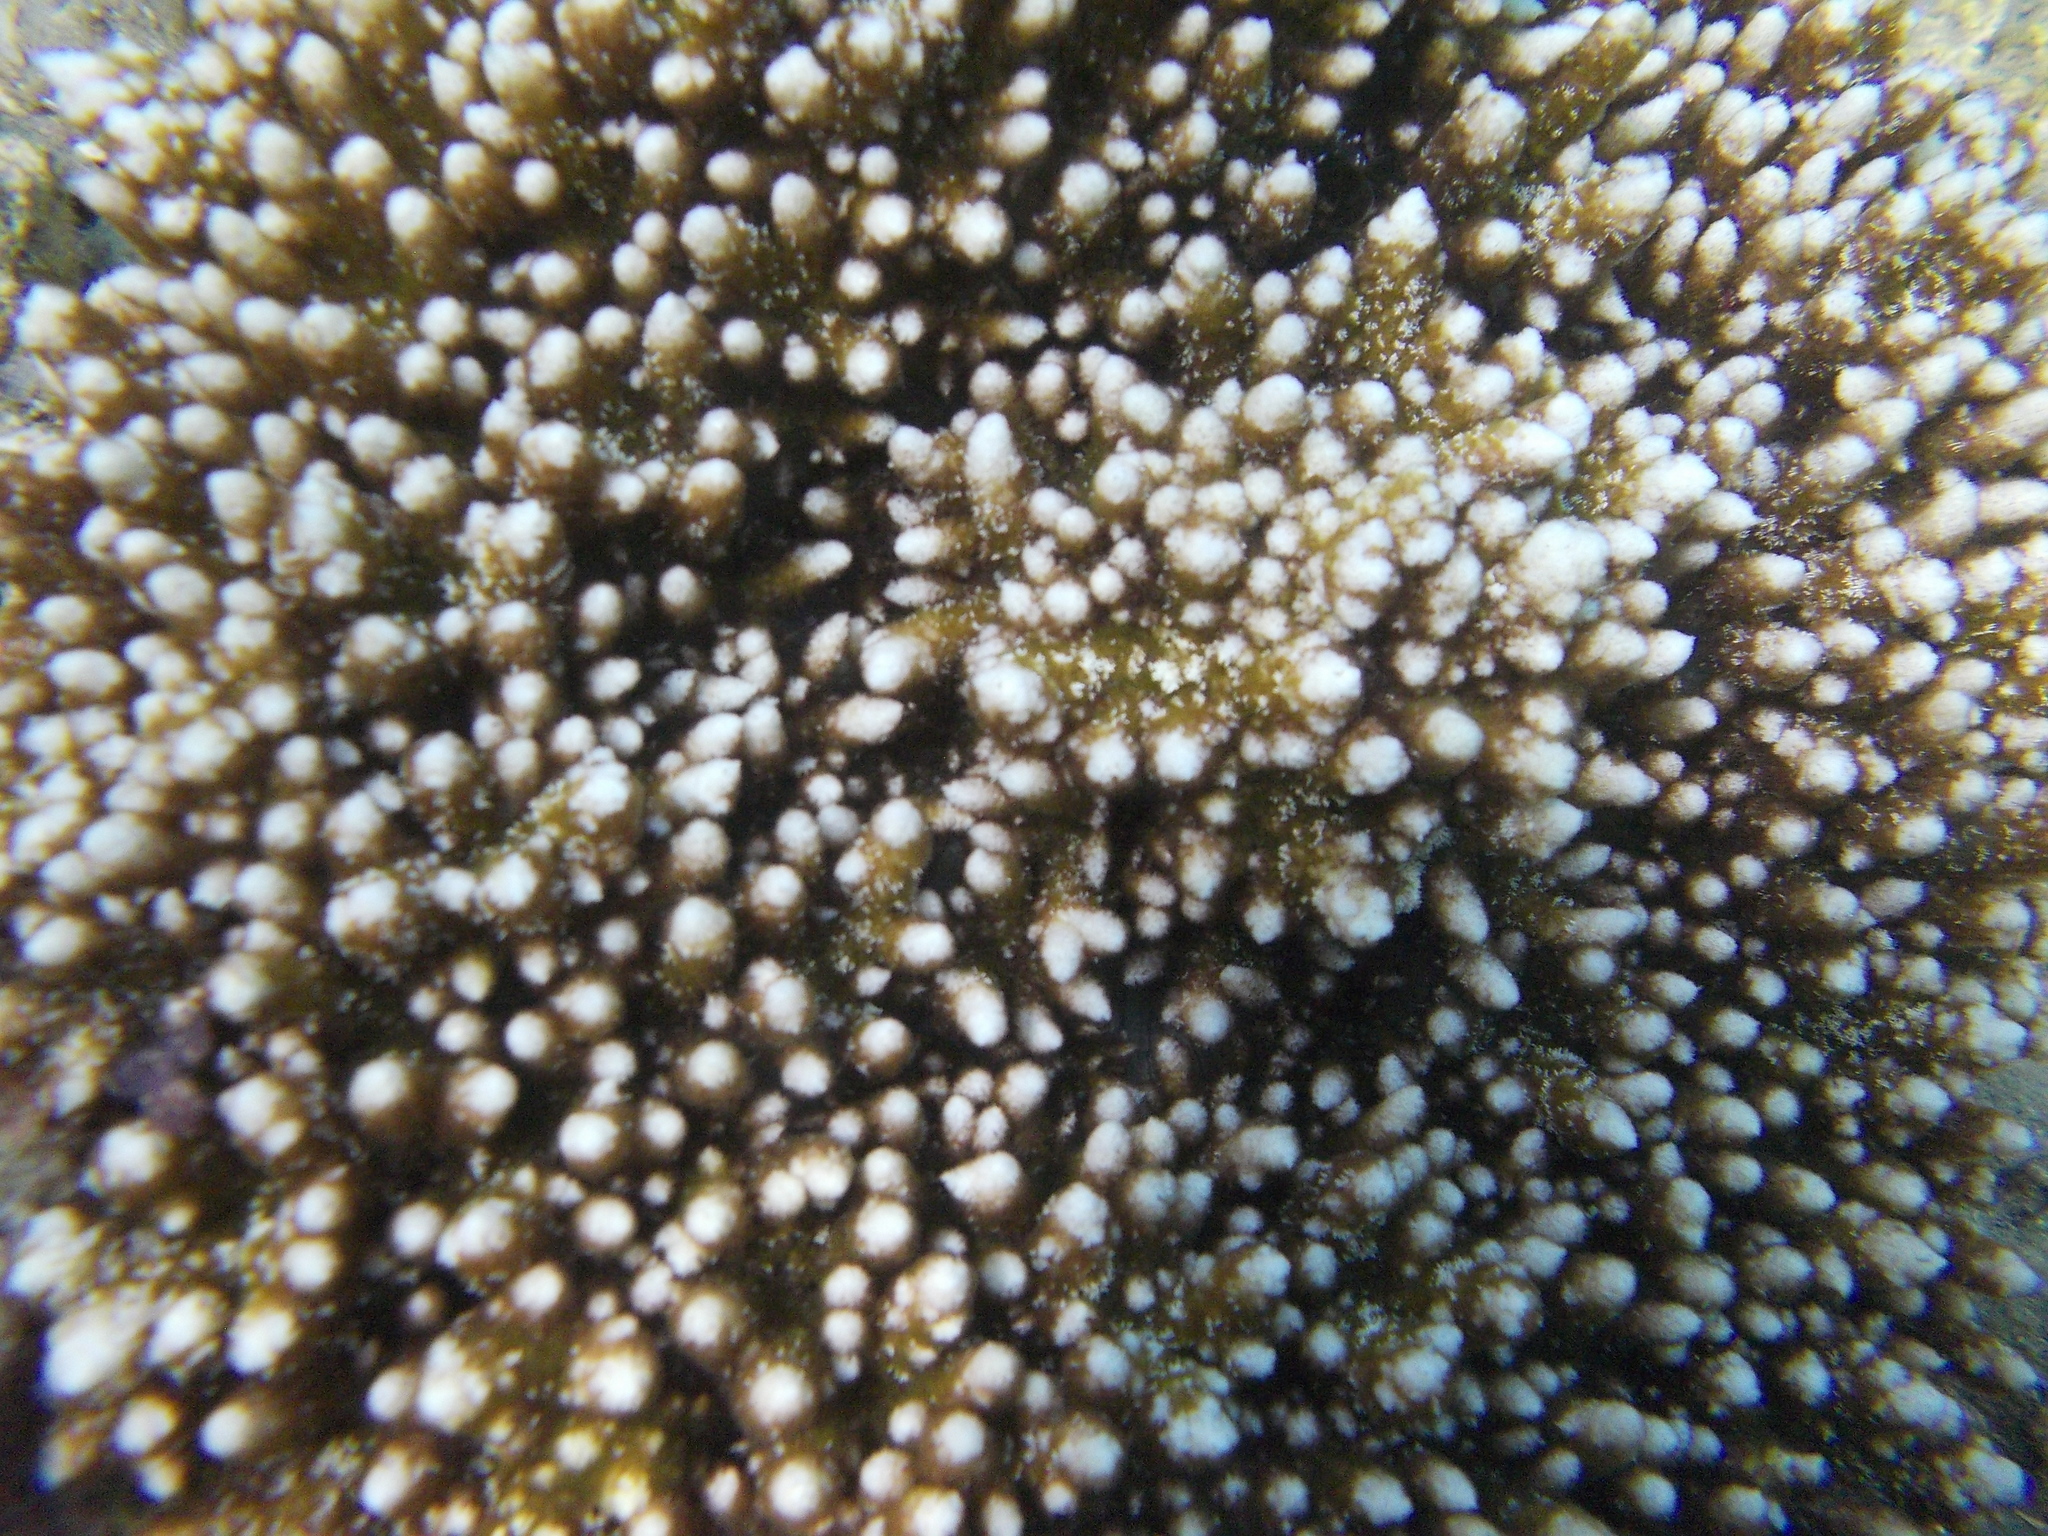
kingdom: Animalia
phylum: Cnidaria
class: Anthozoa
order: Actiniaria
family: Aliciidae
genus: Phyllodiscus
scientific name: Phyllodiscus semoni
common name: Night anemone
